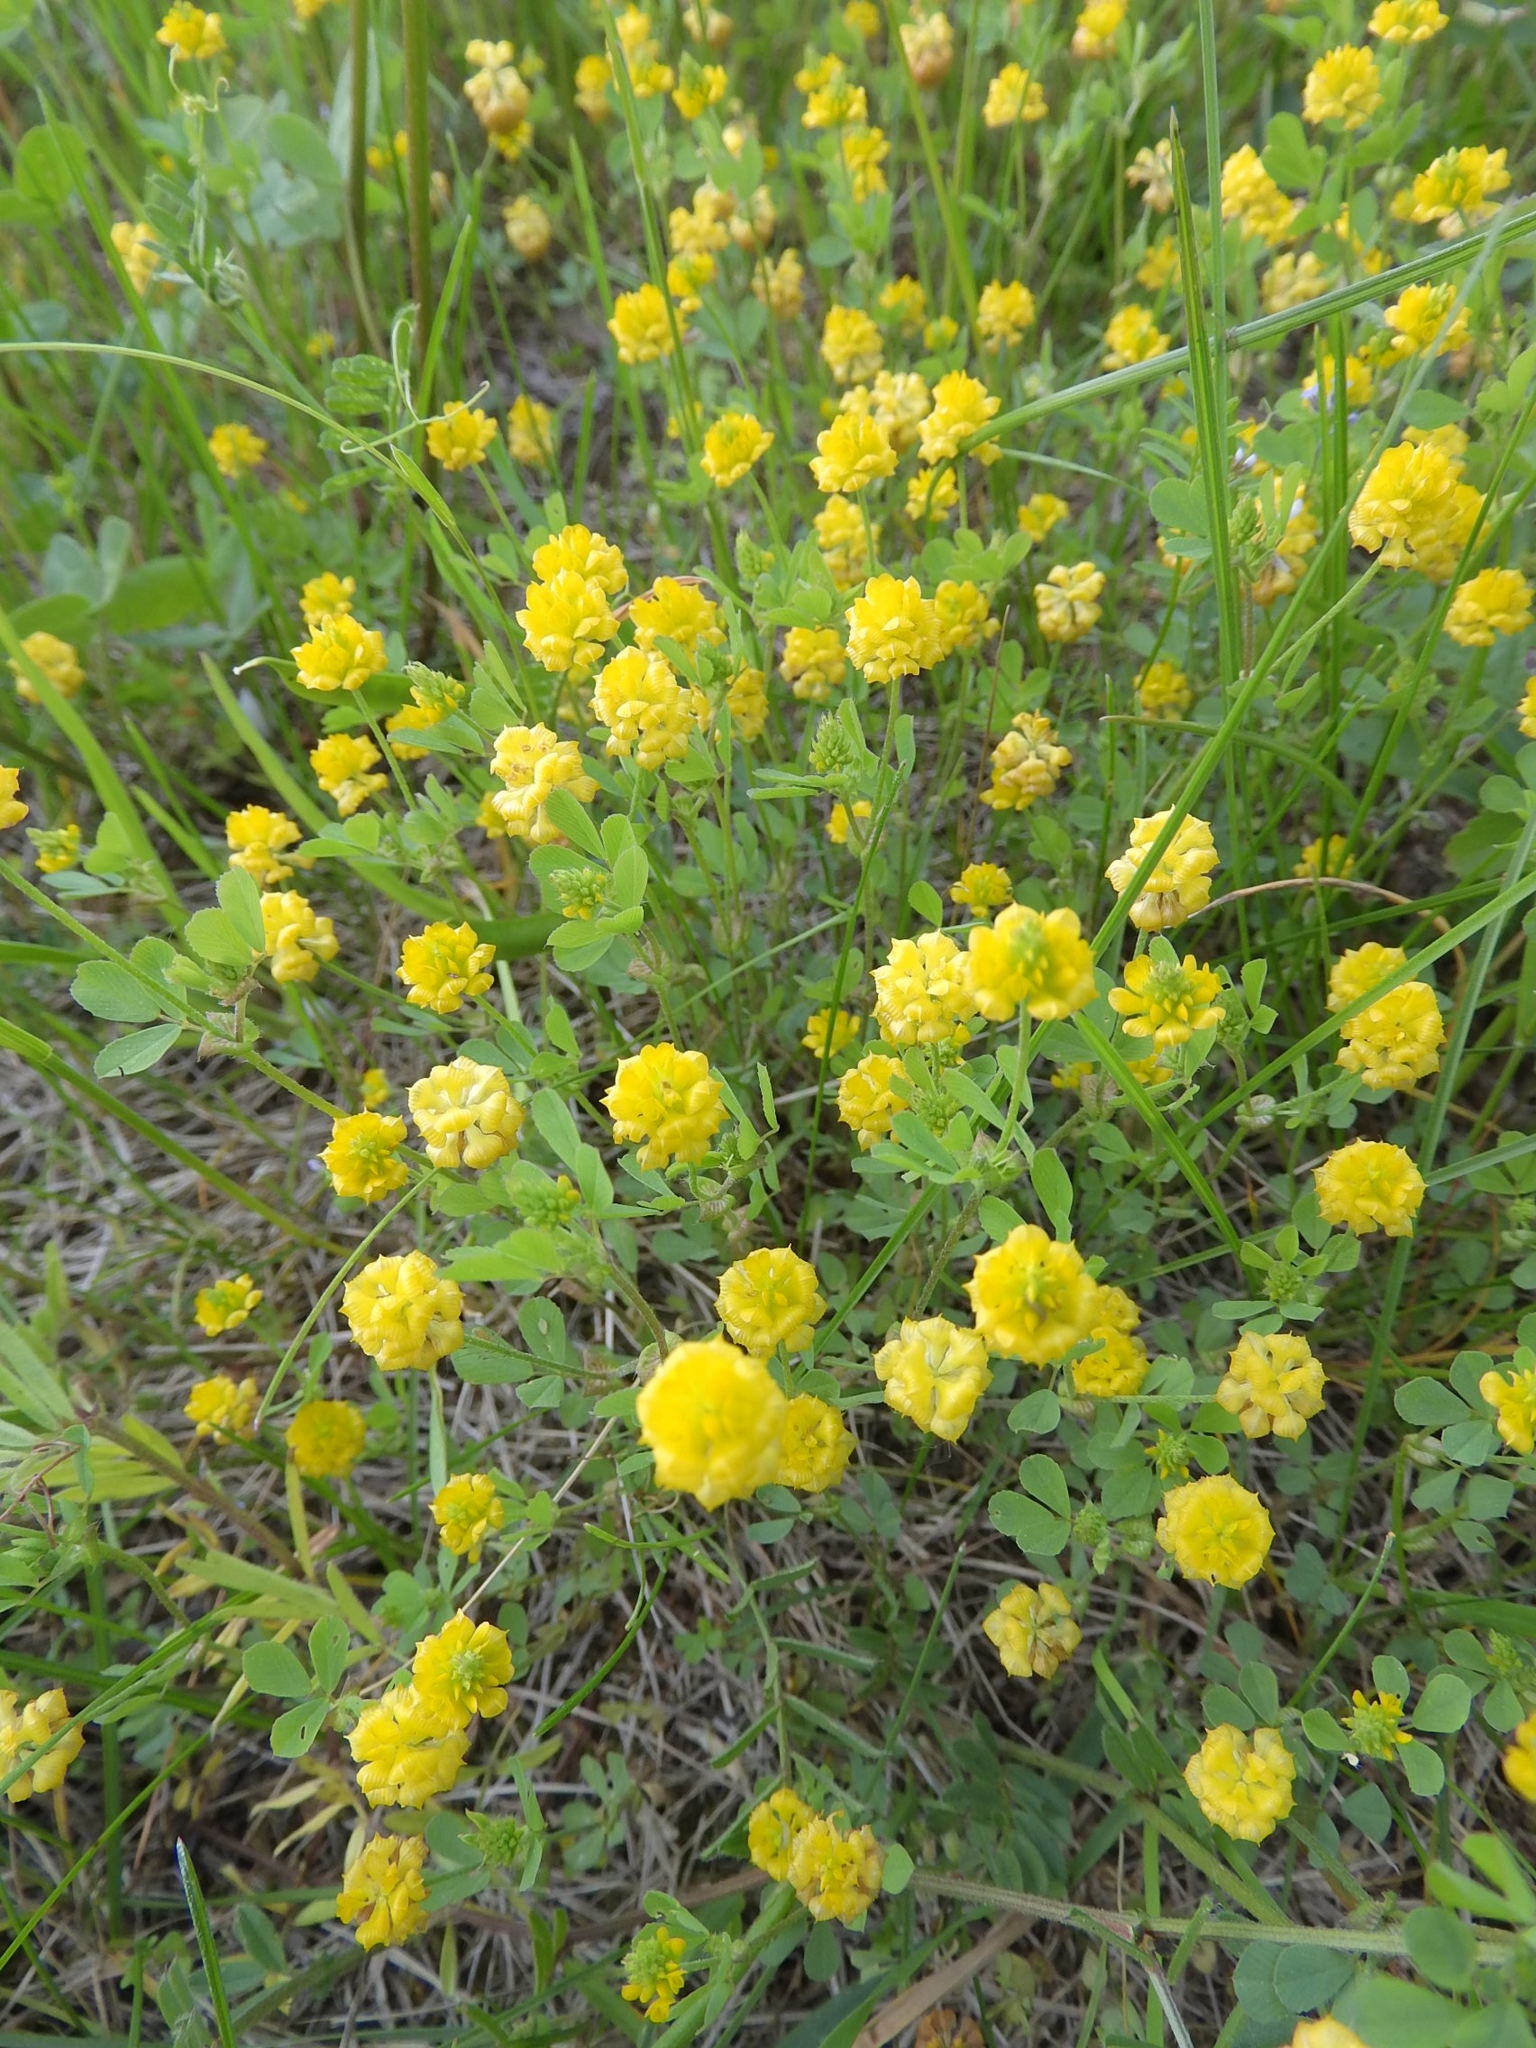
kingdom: Plantae
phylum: Tracheophyta
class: Magnoliopsida
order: Fabales
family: Fabaceae
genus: Trifolium
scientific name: Trifolium campestre
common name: Field clover
